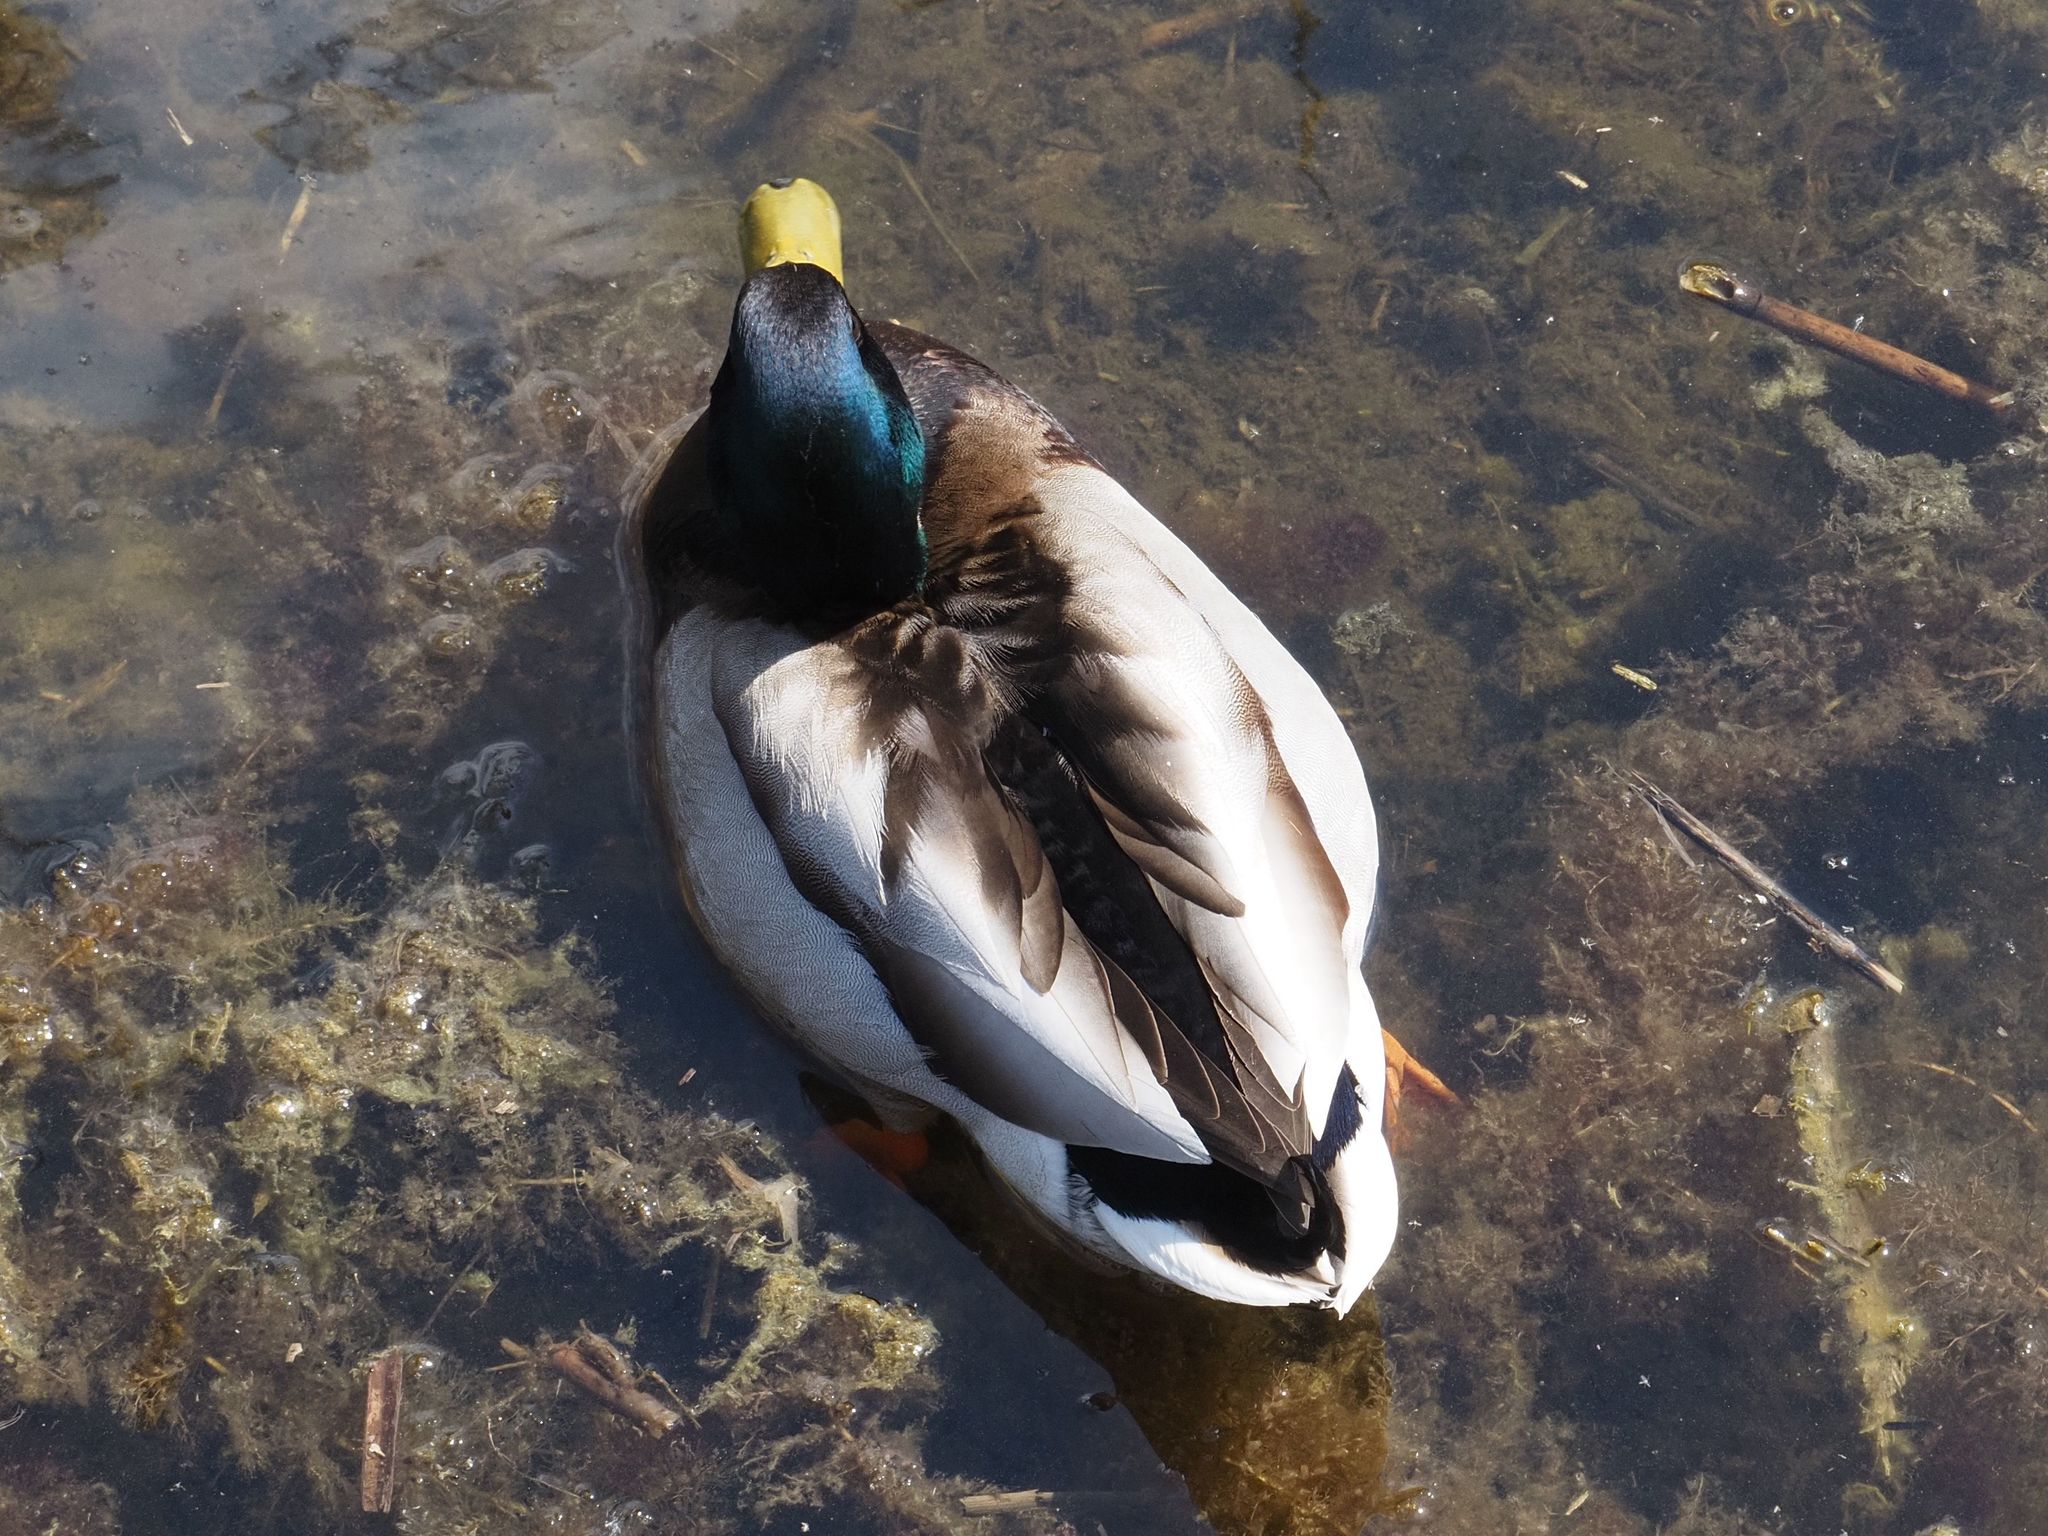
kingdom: Animalia
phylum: Chordata
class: Aves
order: Anseriformes
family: Anatidae
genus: Anas
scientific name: Anas platyrhynchos
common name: Mallard
